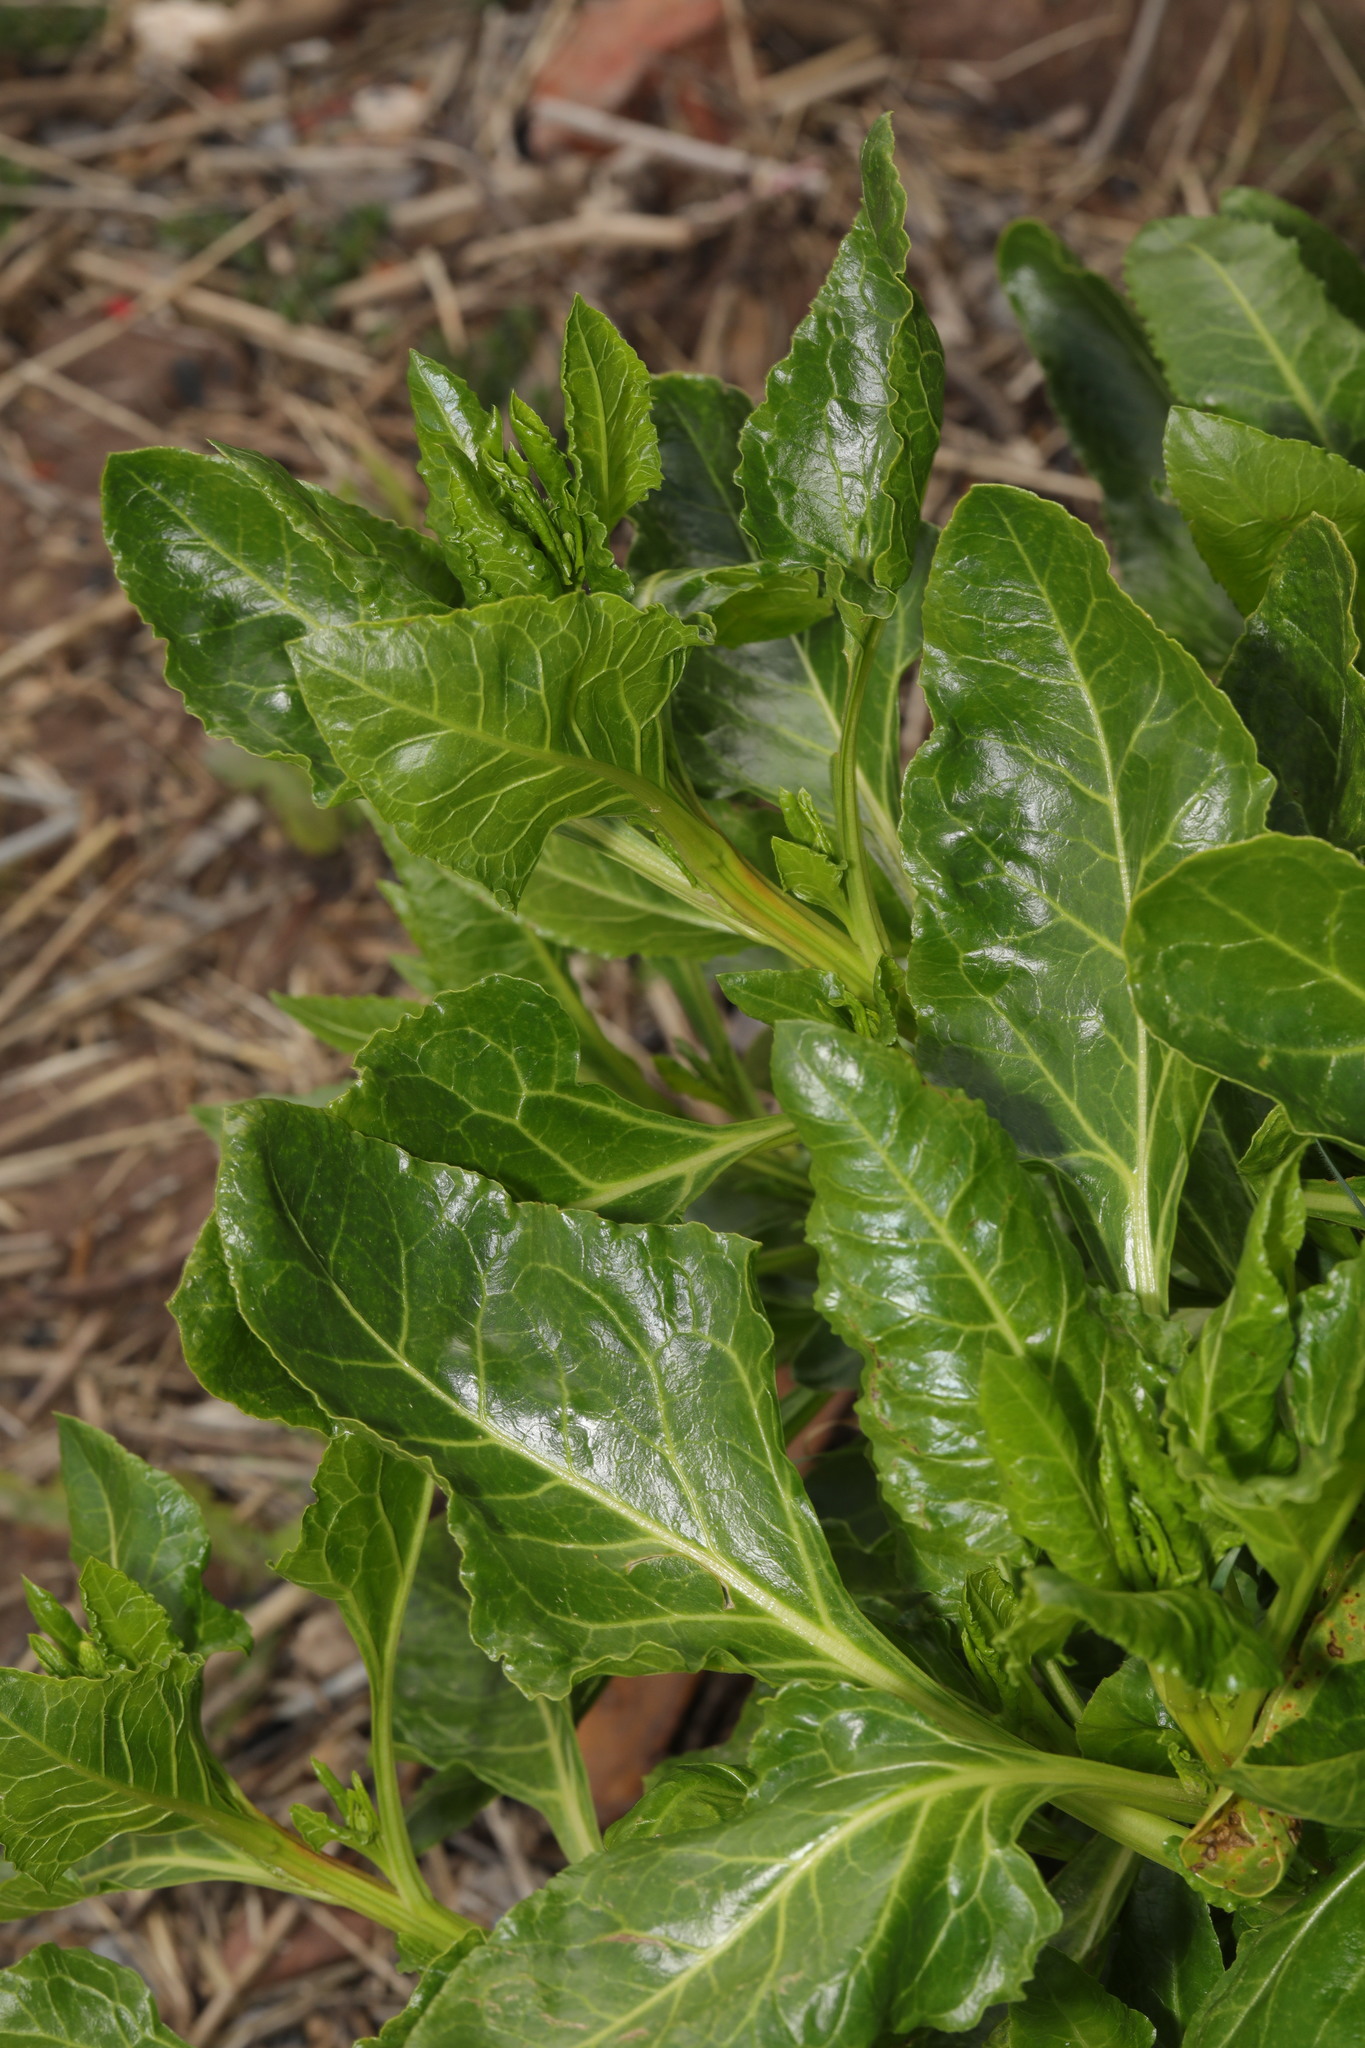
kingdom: Plantae
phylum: Tracheophyta
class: Magnoliopsida
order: Caryophyllales
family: Amaranthaceae
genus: Beta
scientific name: Beta vulgaris
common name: Beet
